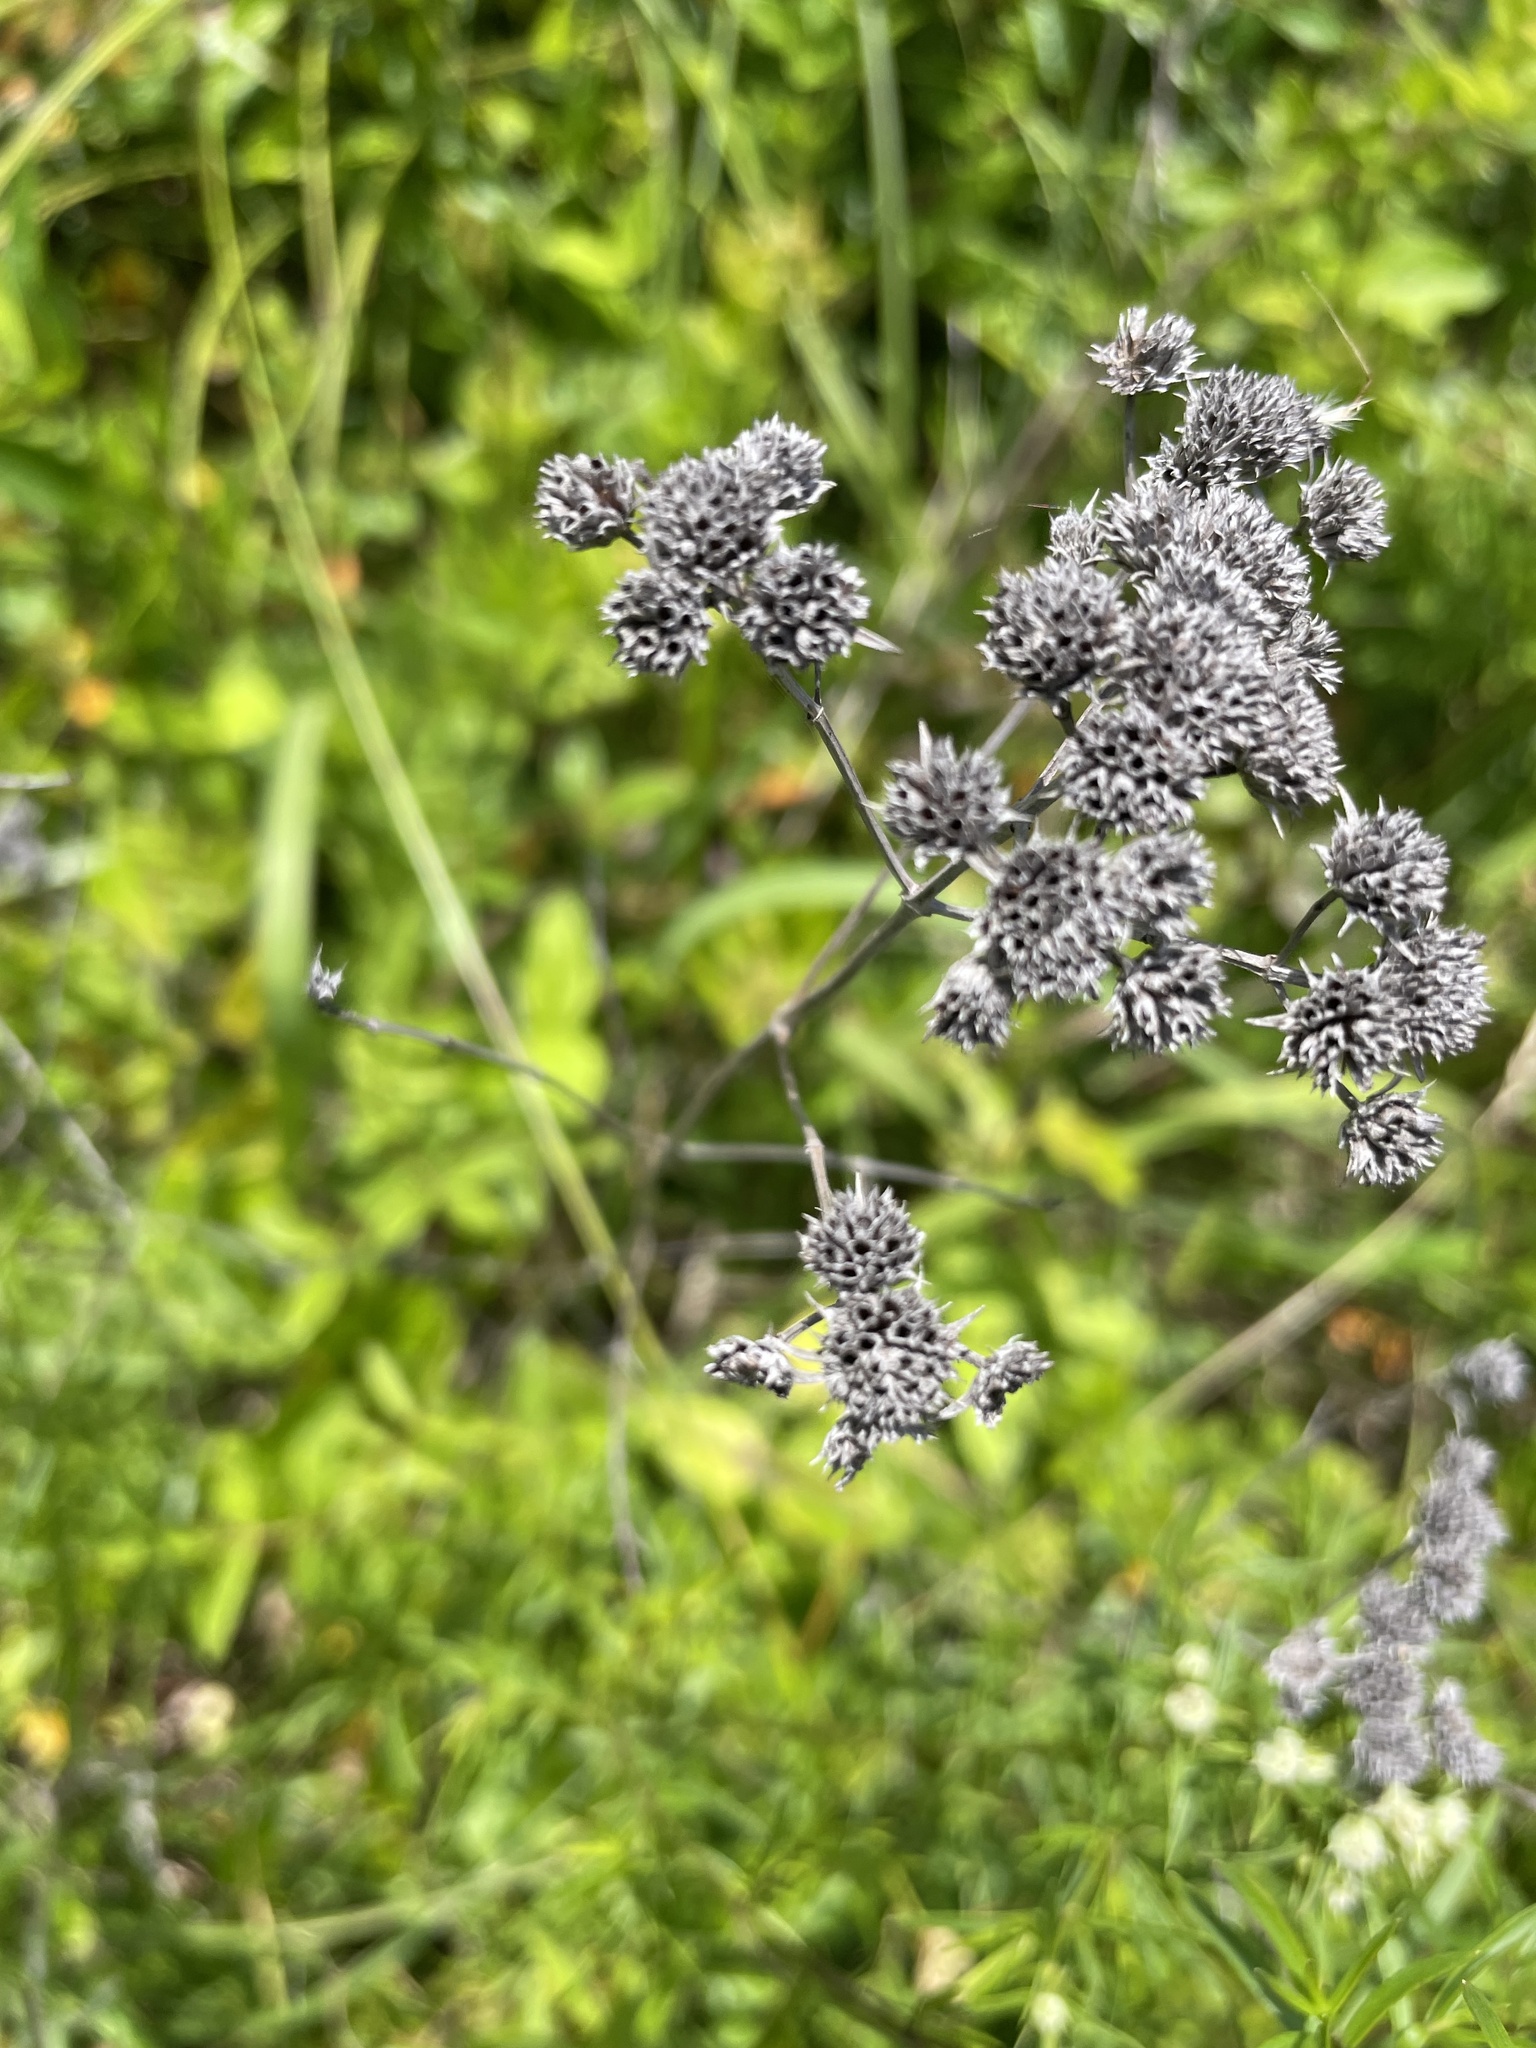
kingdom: Plantae
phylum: Tracheophyta
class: Magnoliopsida
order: Lamiales
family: Lamiaceae
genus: Pycnanthemum
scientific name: Pycnanthemum tenuifolium
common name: Narrow-leaf mountain-mint
